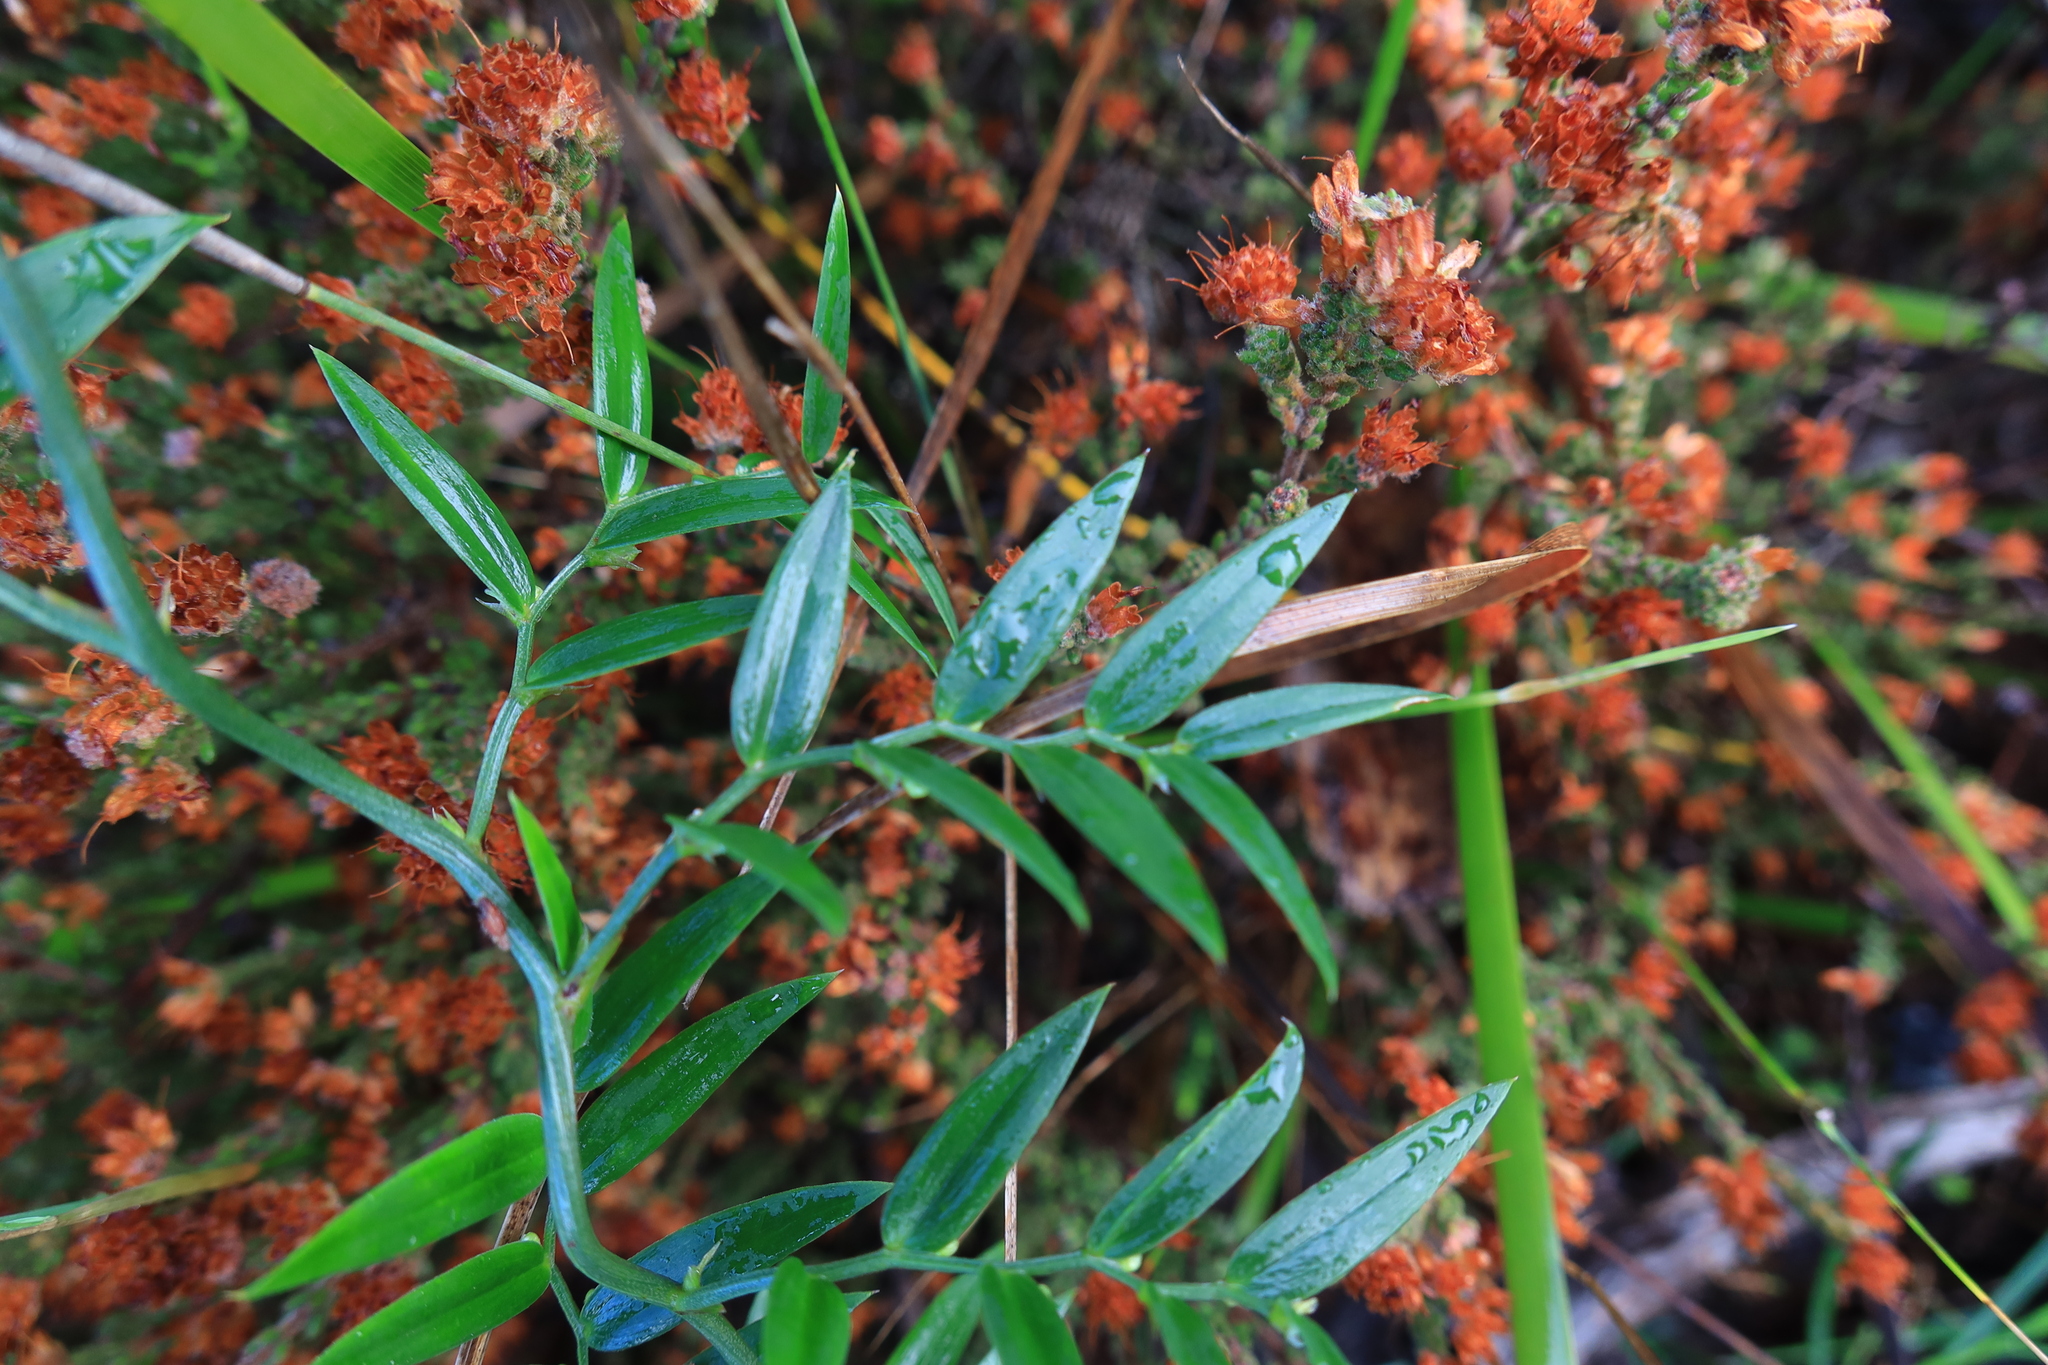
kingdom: Plantae
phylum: Tracheophyta
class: Liliopsida
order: Asparagales
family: Asparagaceae
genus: Asparagus
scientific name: Asparagus kraussianus
